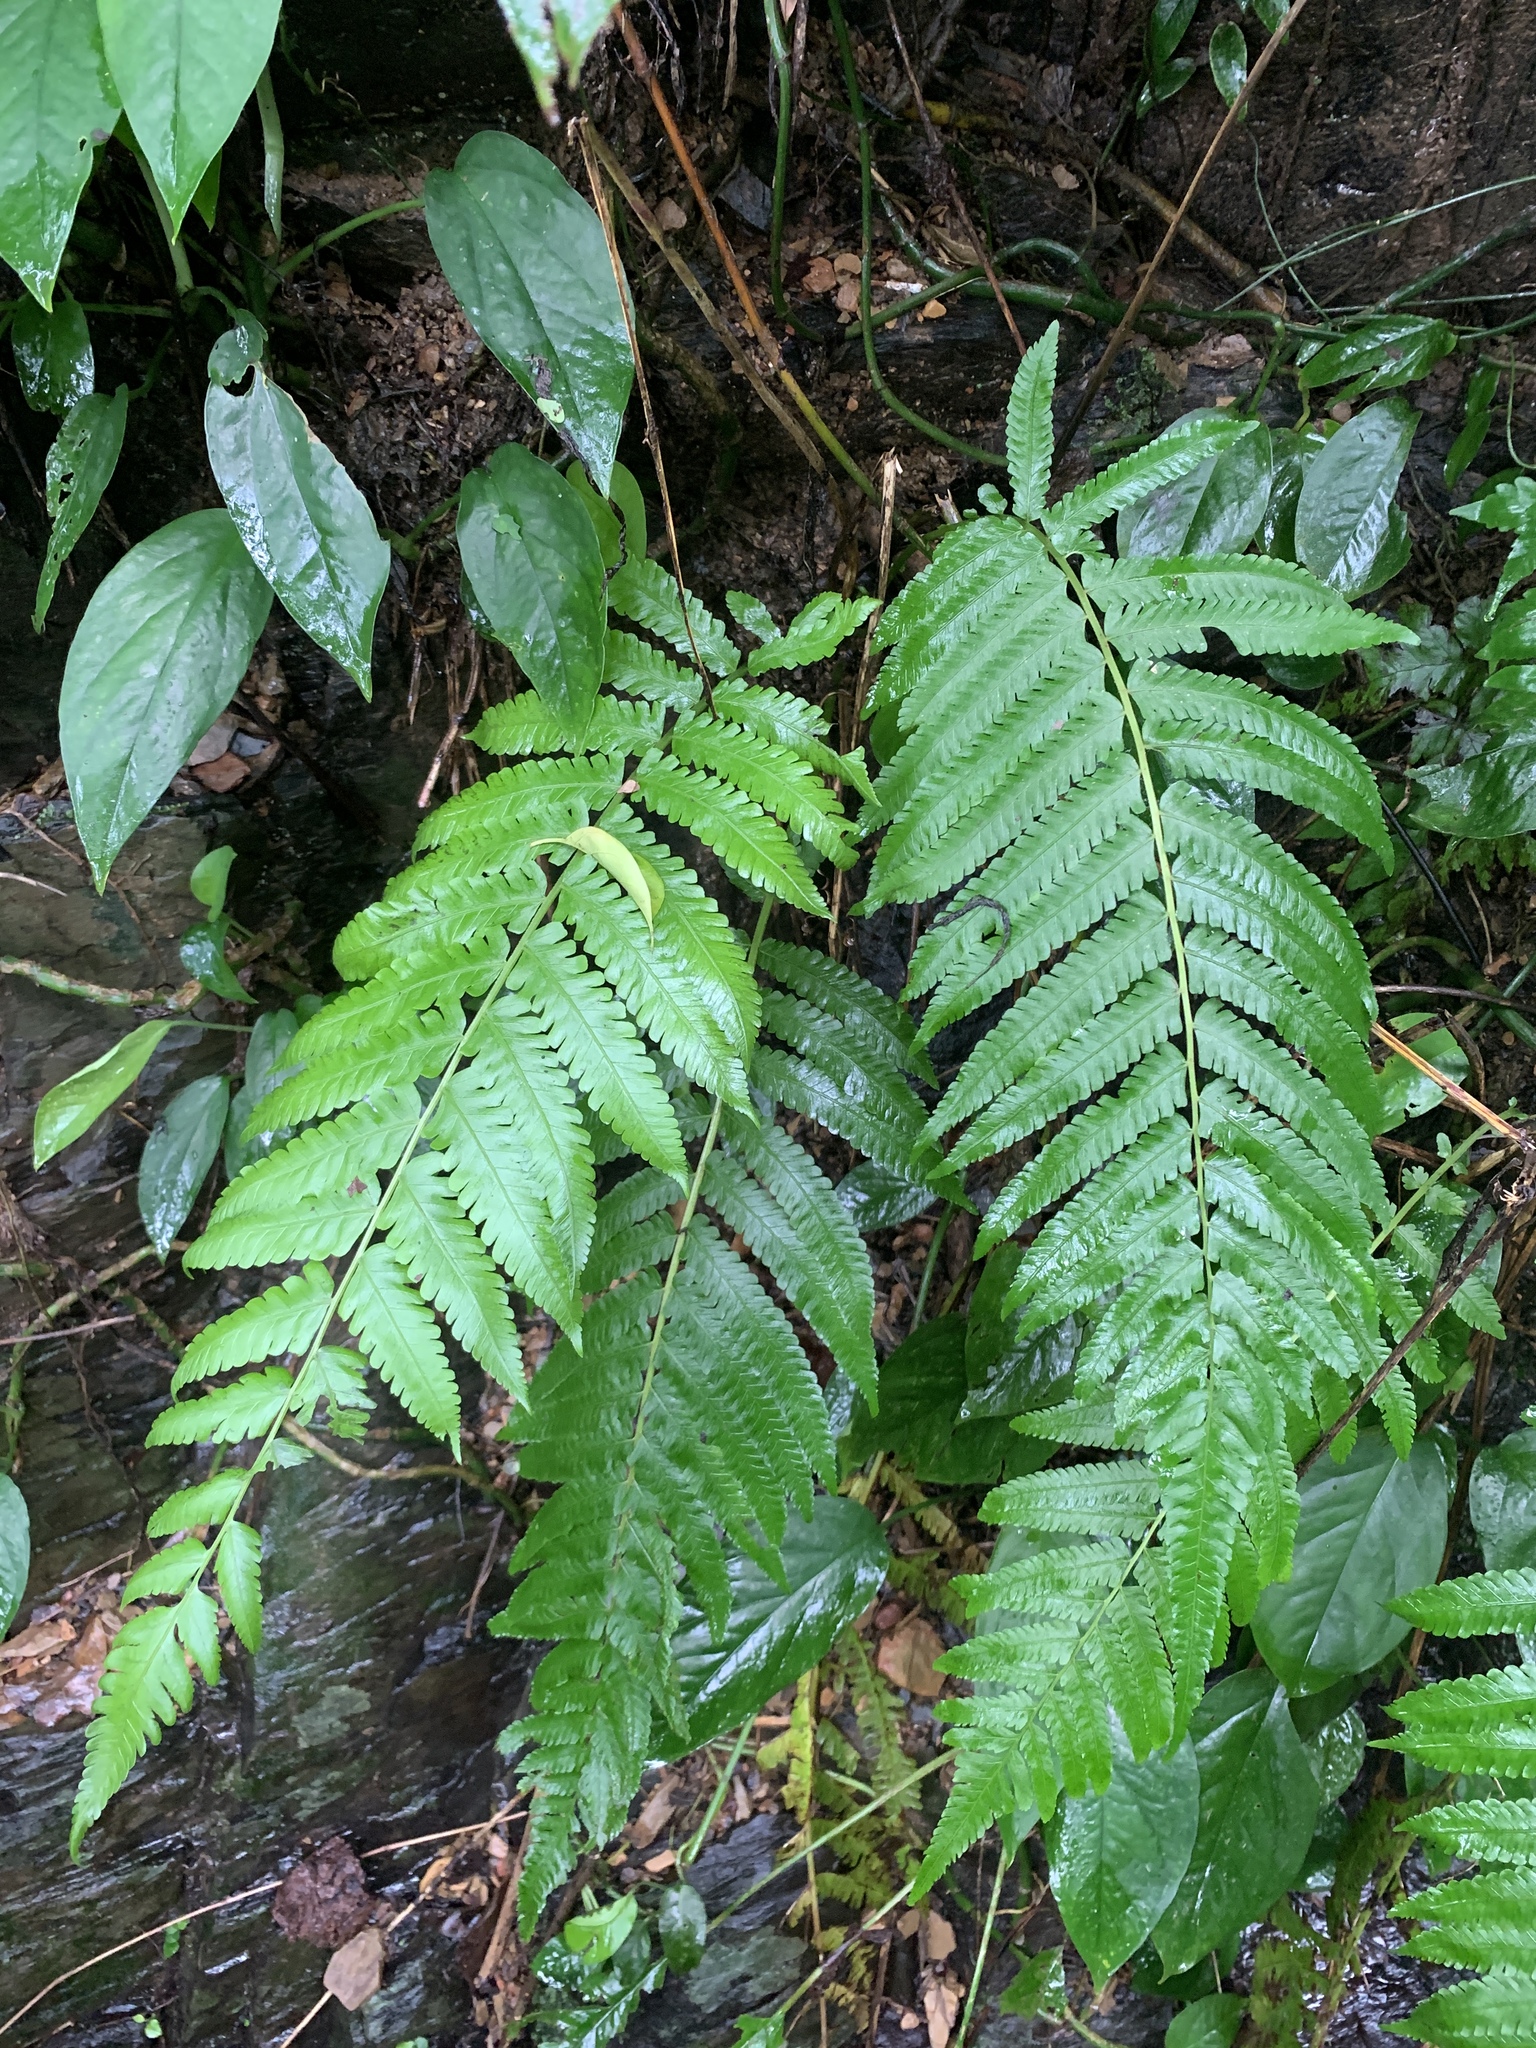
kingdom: Plantae
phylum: Tracheophyta
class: Polypodiopsida
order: Polypodiales
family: Thelypteridaceae
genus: Reholttumia
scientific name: Reholttumia truncata
